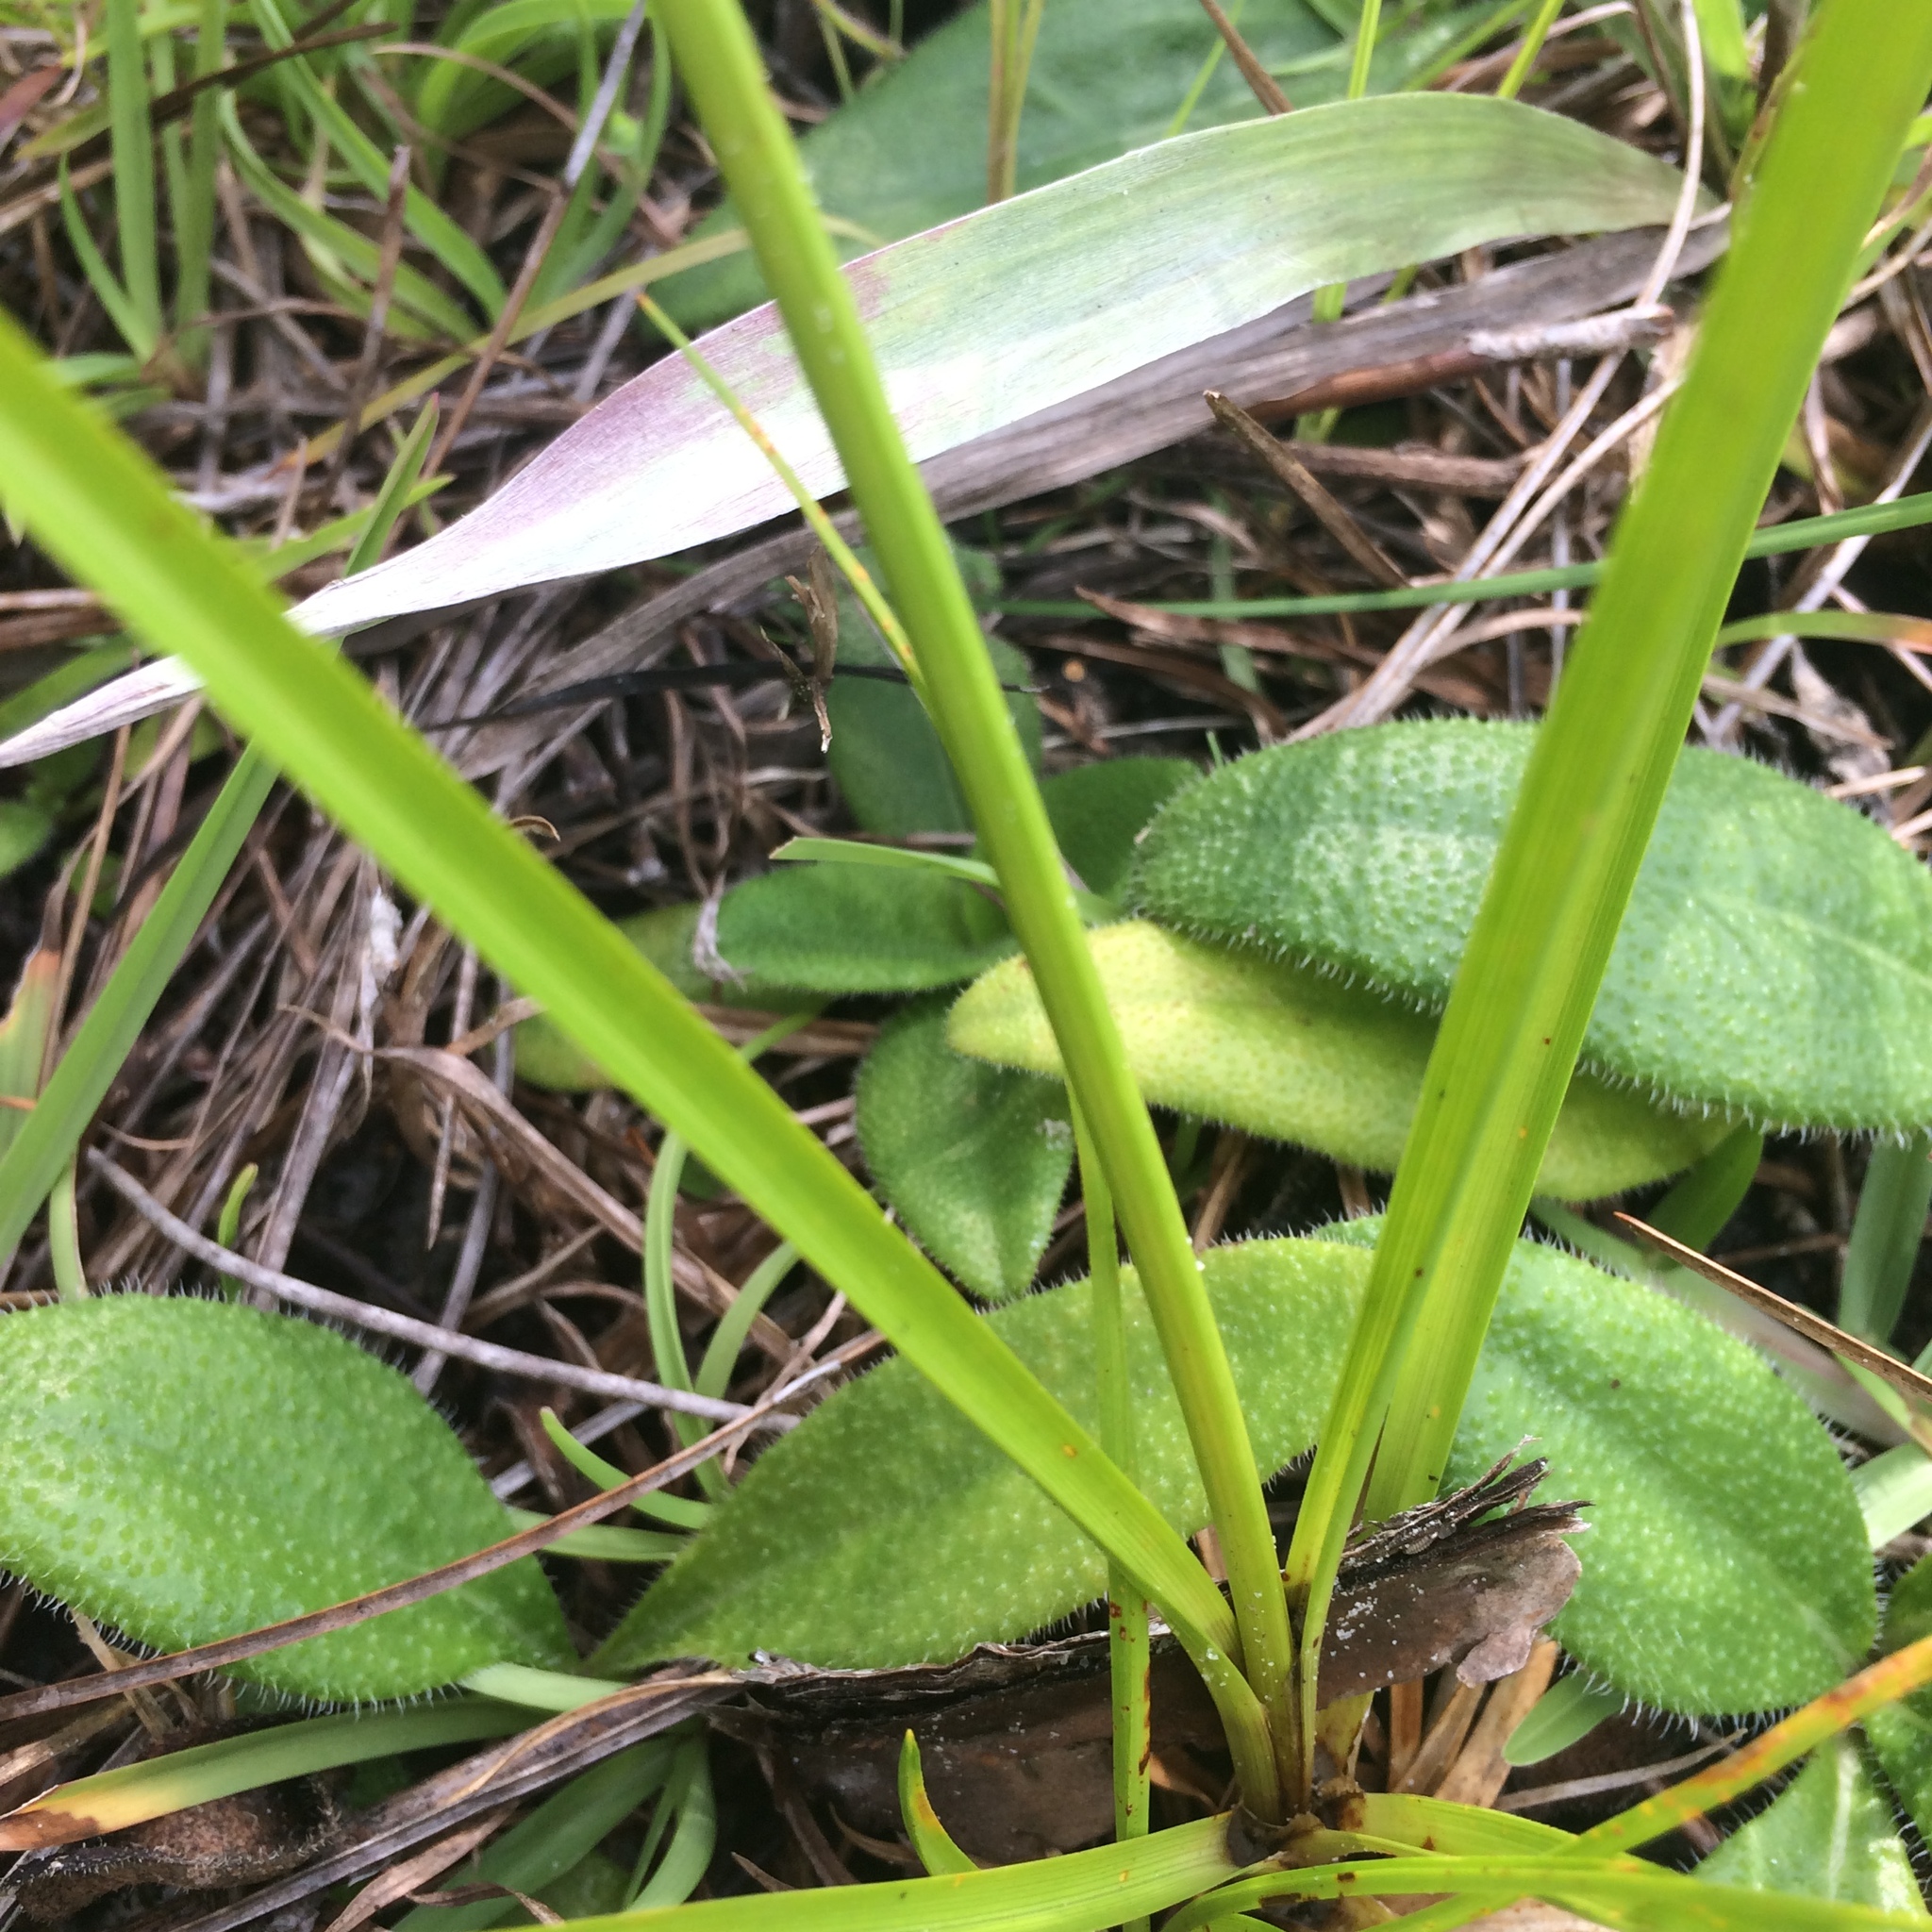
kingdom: Plantae
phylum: Tracheophyta
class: Liliopsida
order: Poales
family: Cyperaceae
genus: Cyperus
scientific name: Cyperus lecontei
